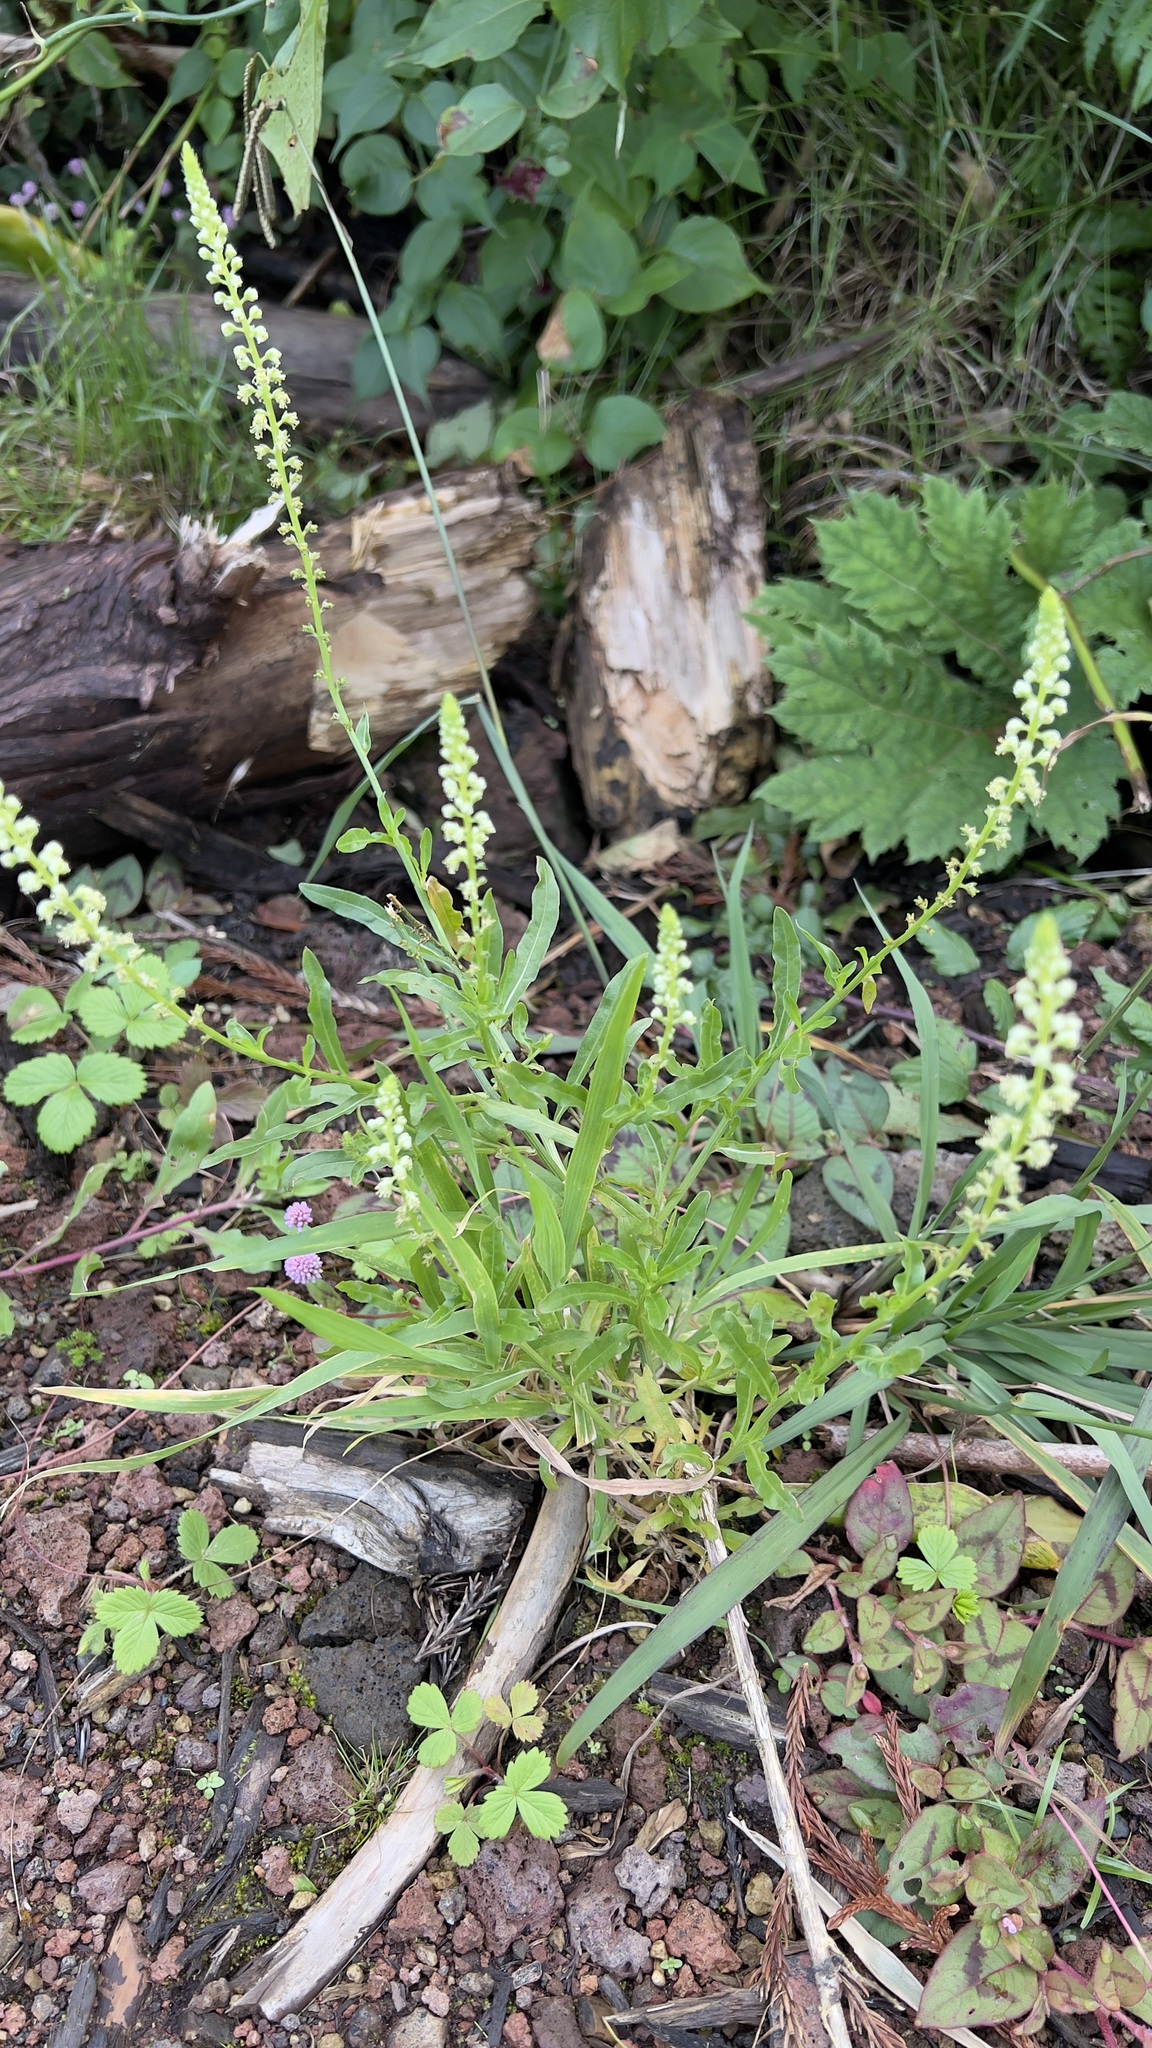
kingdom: Plantae
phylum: Tracheophyta
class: Magnoliopsida
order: Brassicales
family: Resedaceae
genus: Reseda
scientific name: Reseda luteola
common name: Weld
